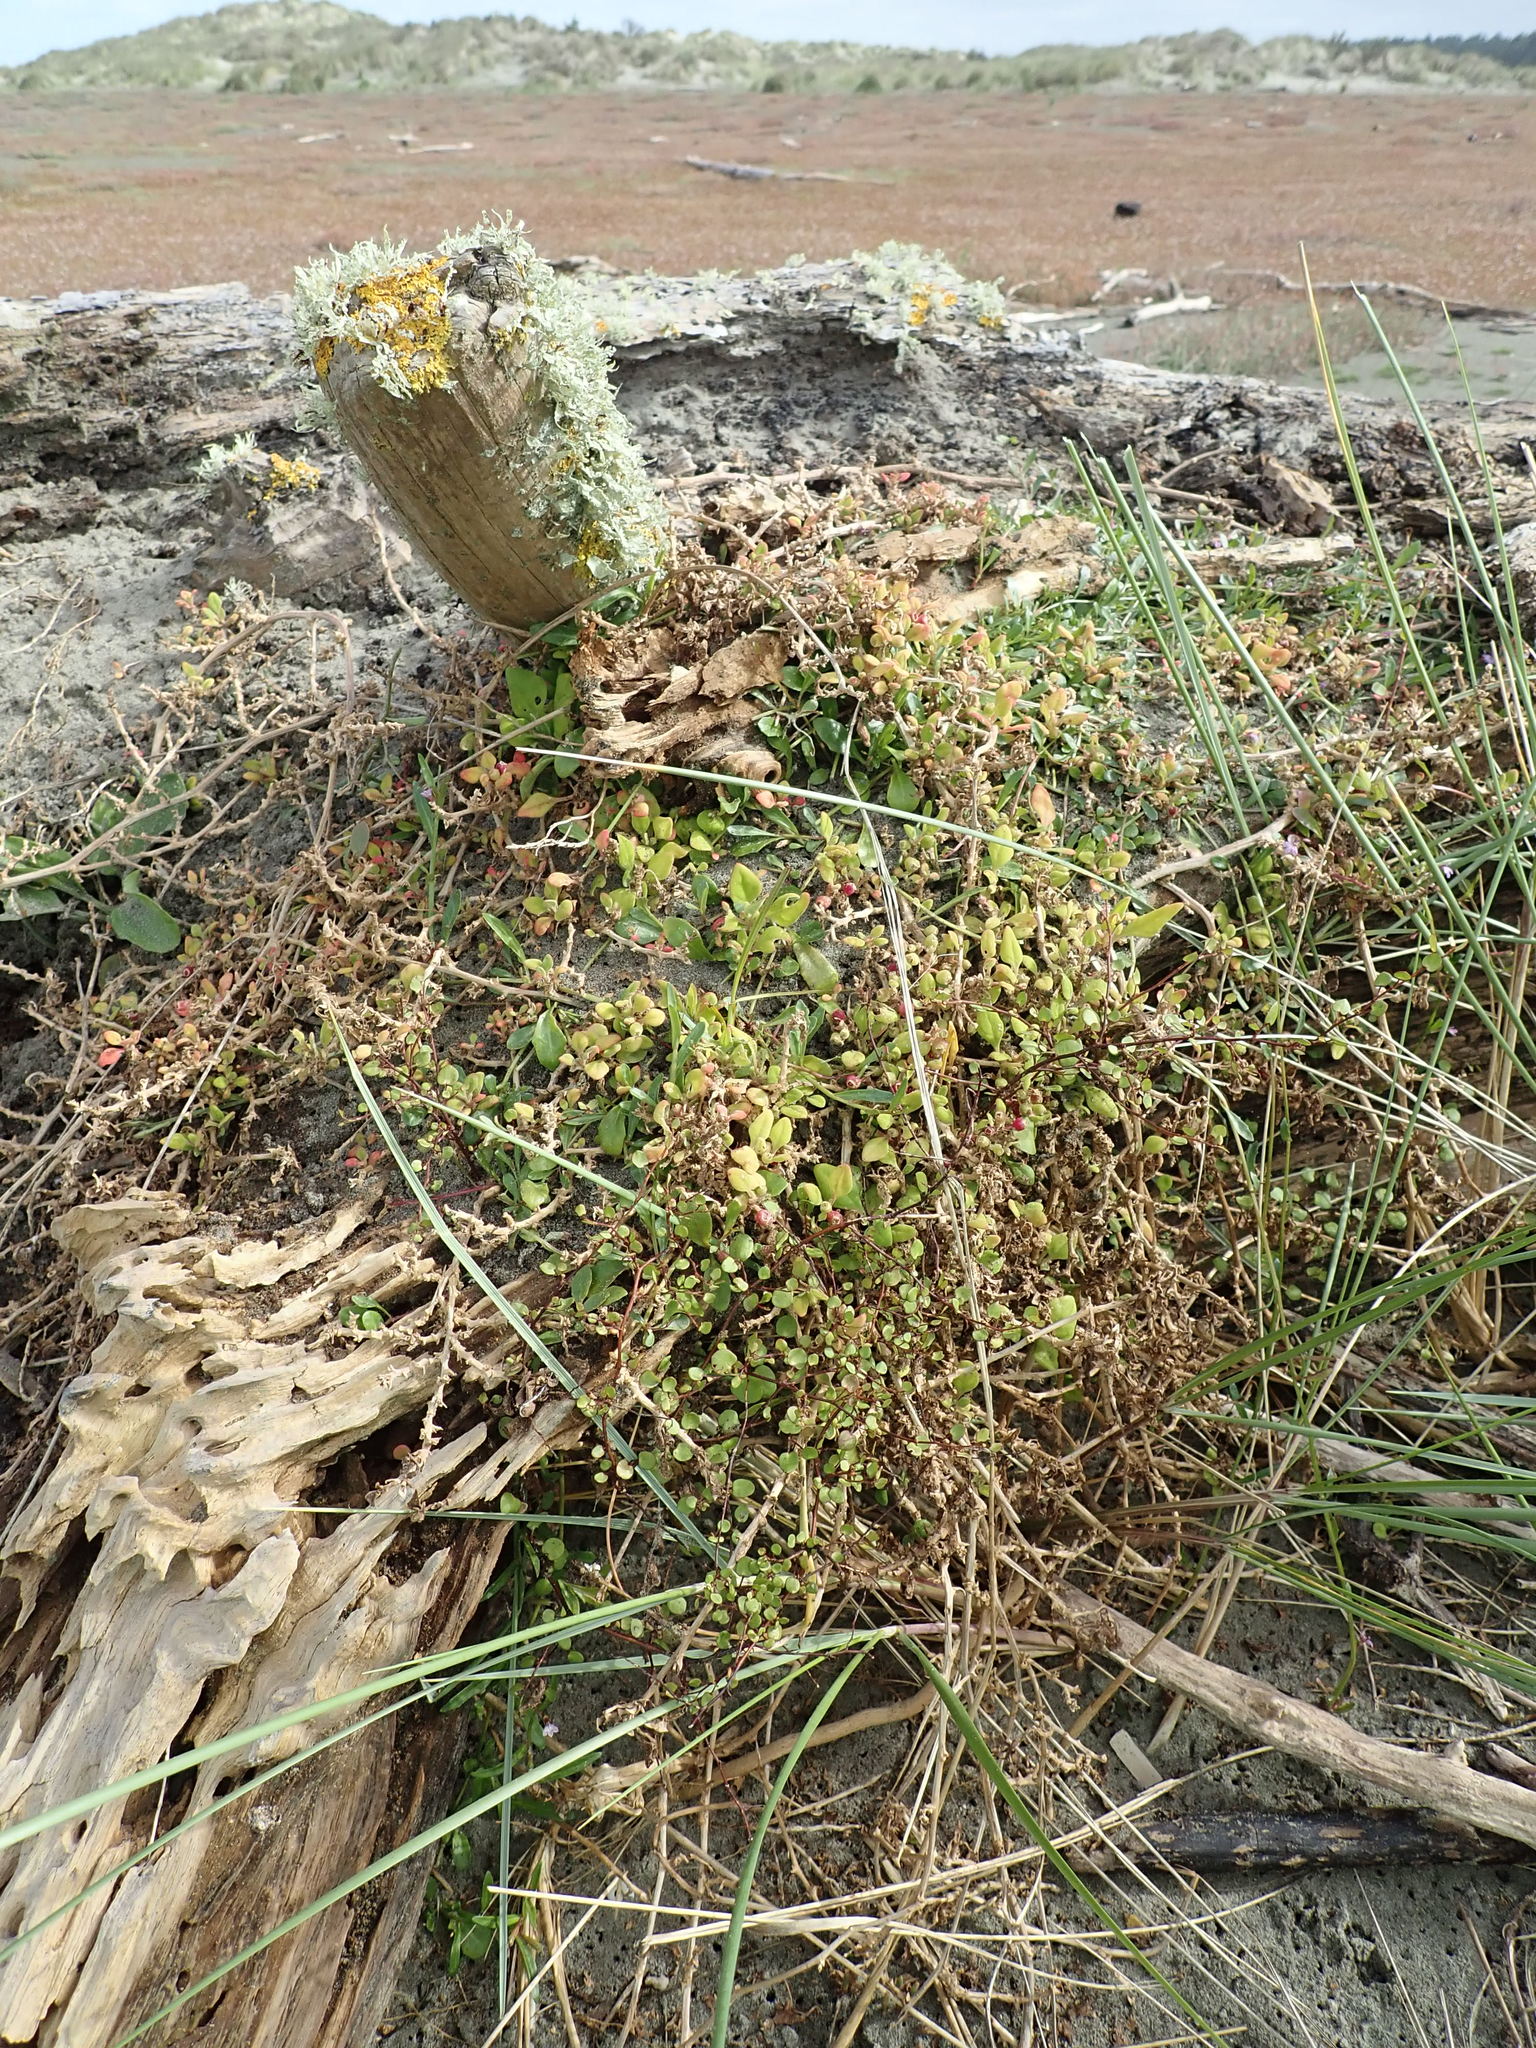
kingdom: Plantae
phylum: Tracheophyta
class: Magnoliopsida
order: Caryophyllales
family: Polygonaceae
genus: Muehlenbeckia
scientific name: Muehlenbeckia complexa
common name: Wireplant
